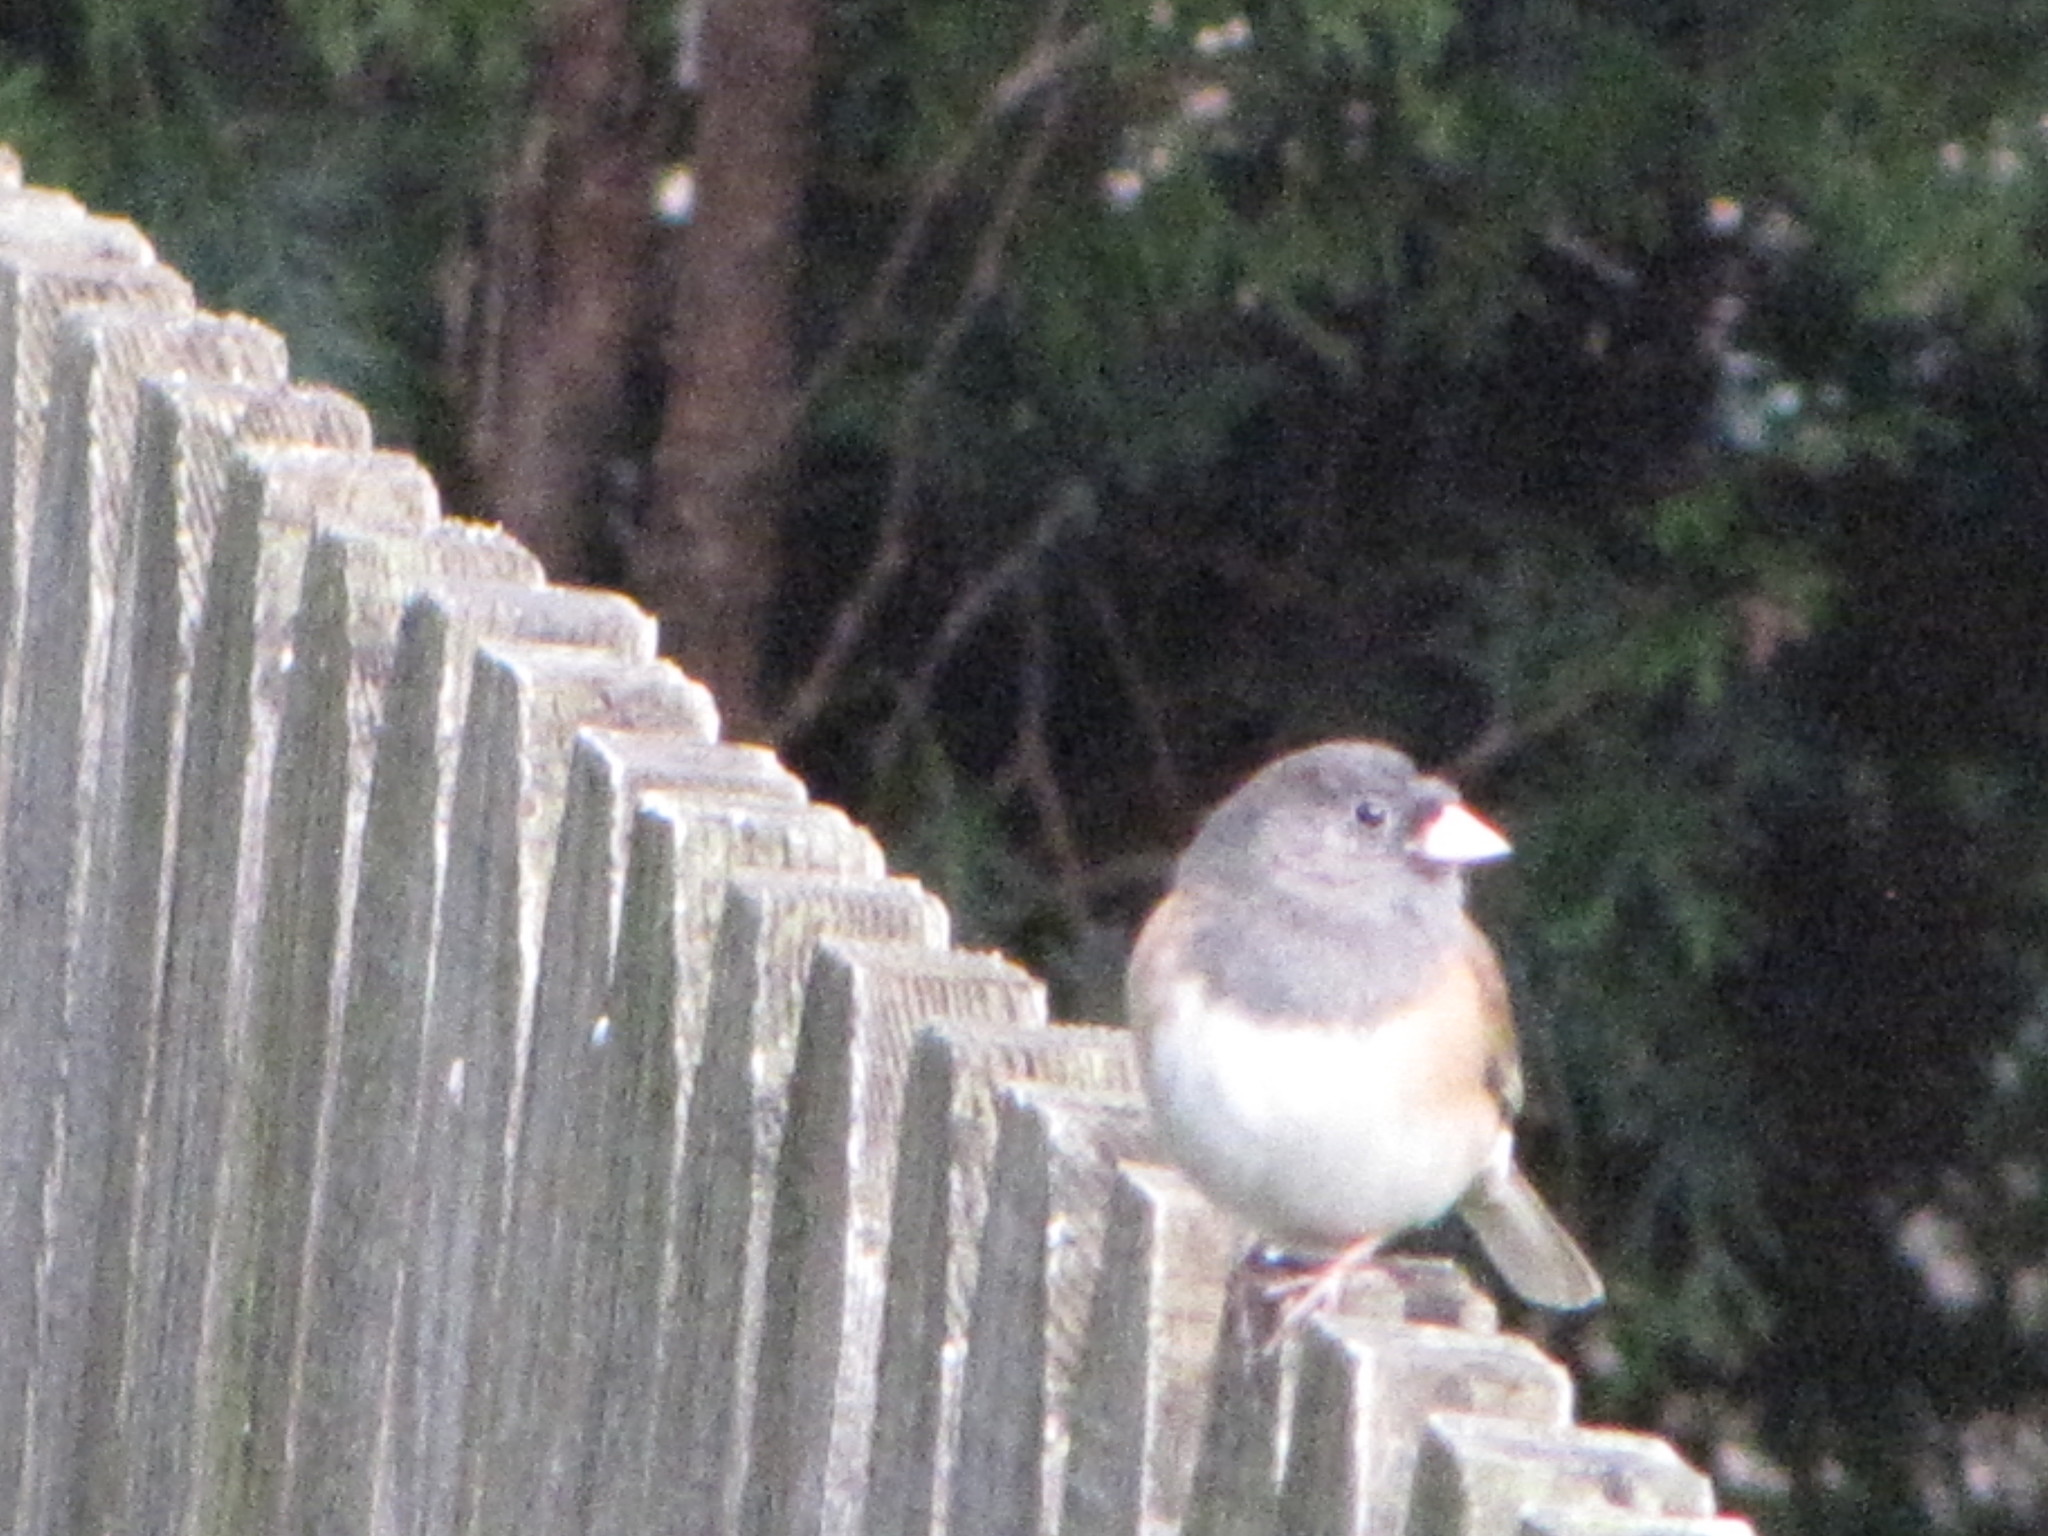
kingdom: Animalia
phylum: Chordata
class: Aves
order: Passeriformes
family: Passerellidae
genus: Junco
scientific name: Junco hyemalis
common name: Dark-eyed junco
